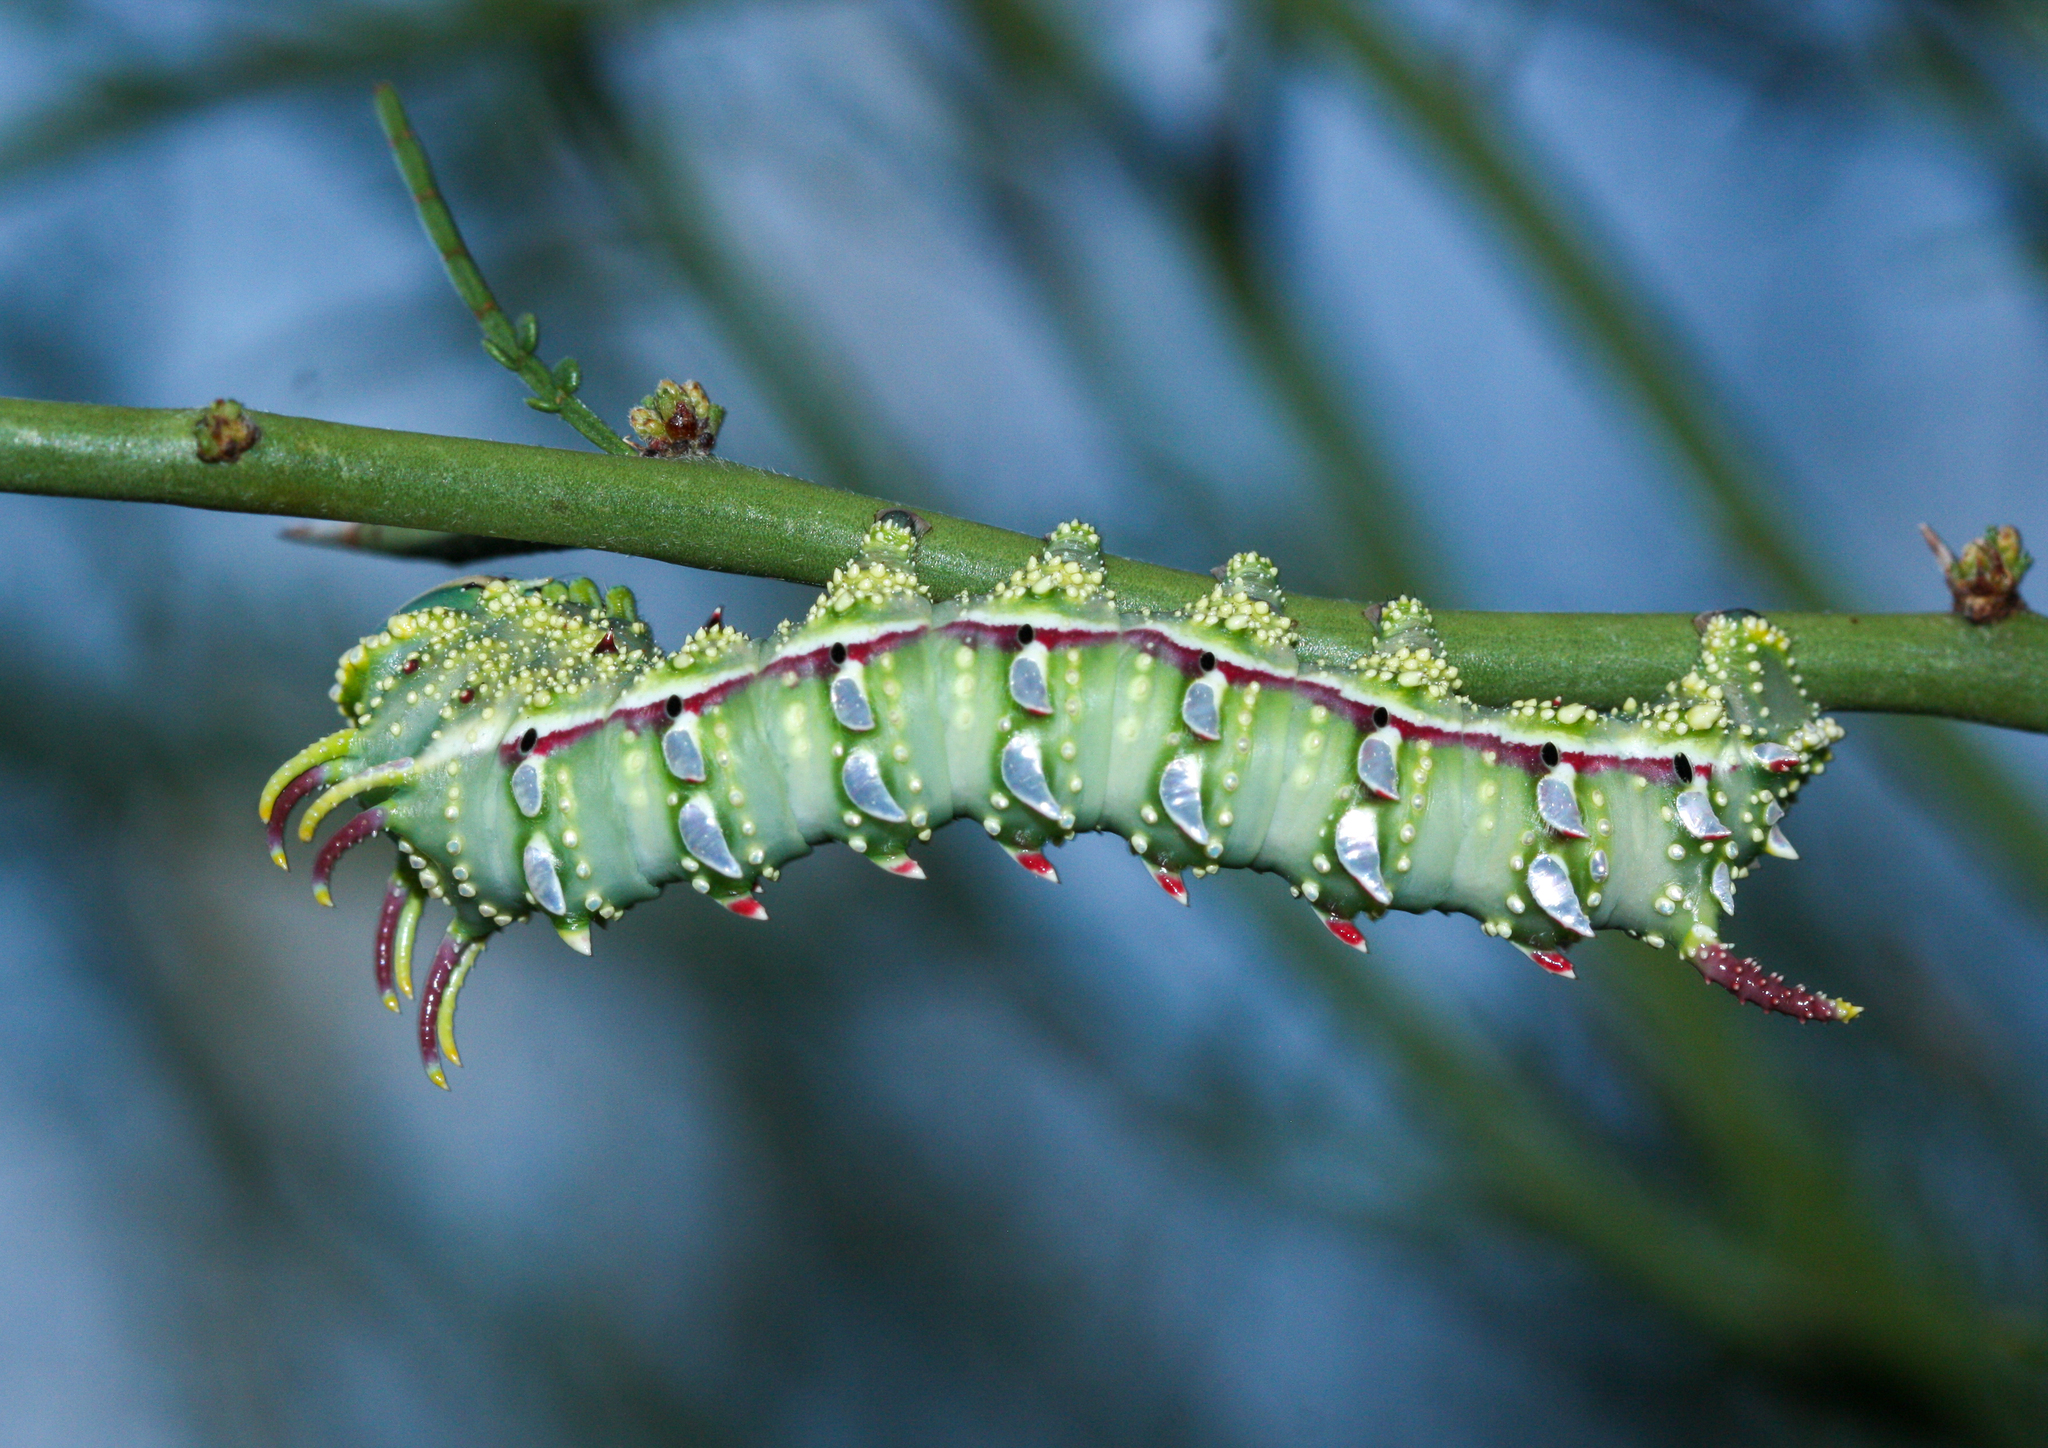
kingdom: Animalia
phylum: Arthropoda
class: Insecta
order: Lepidoptera
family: Saturniidae
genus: Syssphinx
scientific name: Syssphinx hubbardi
